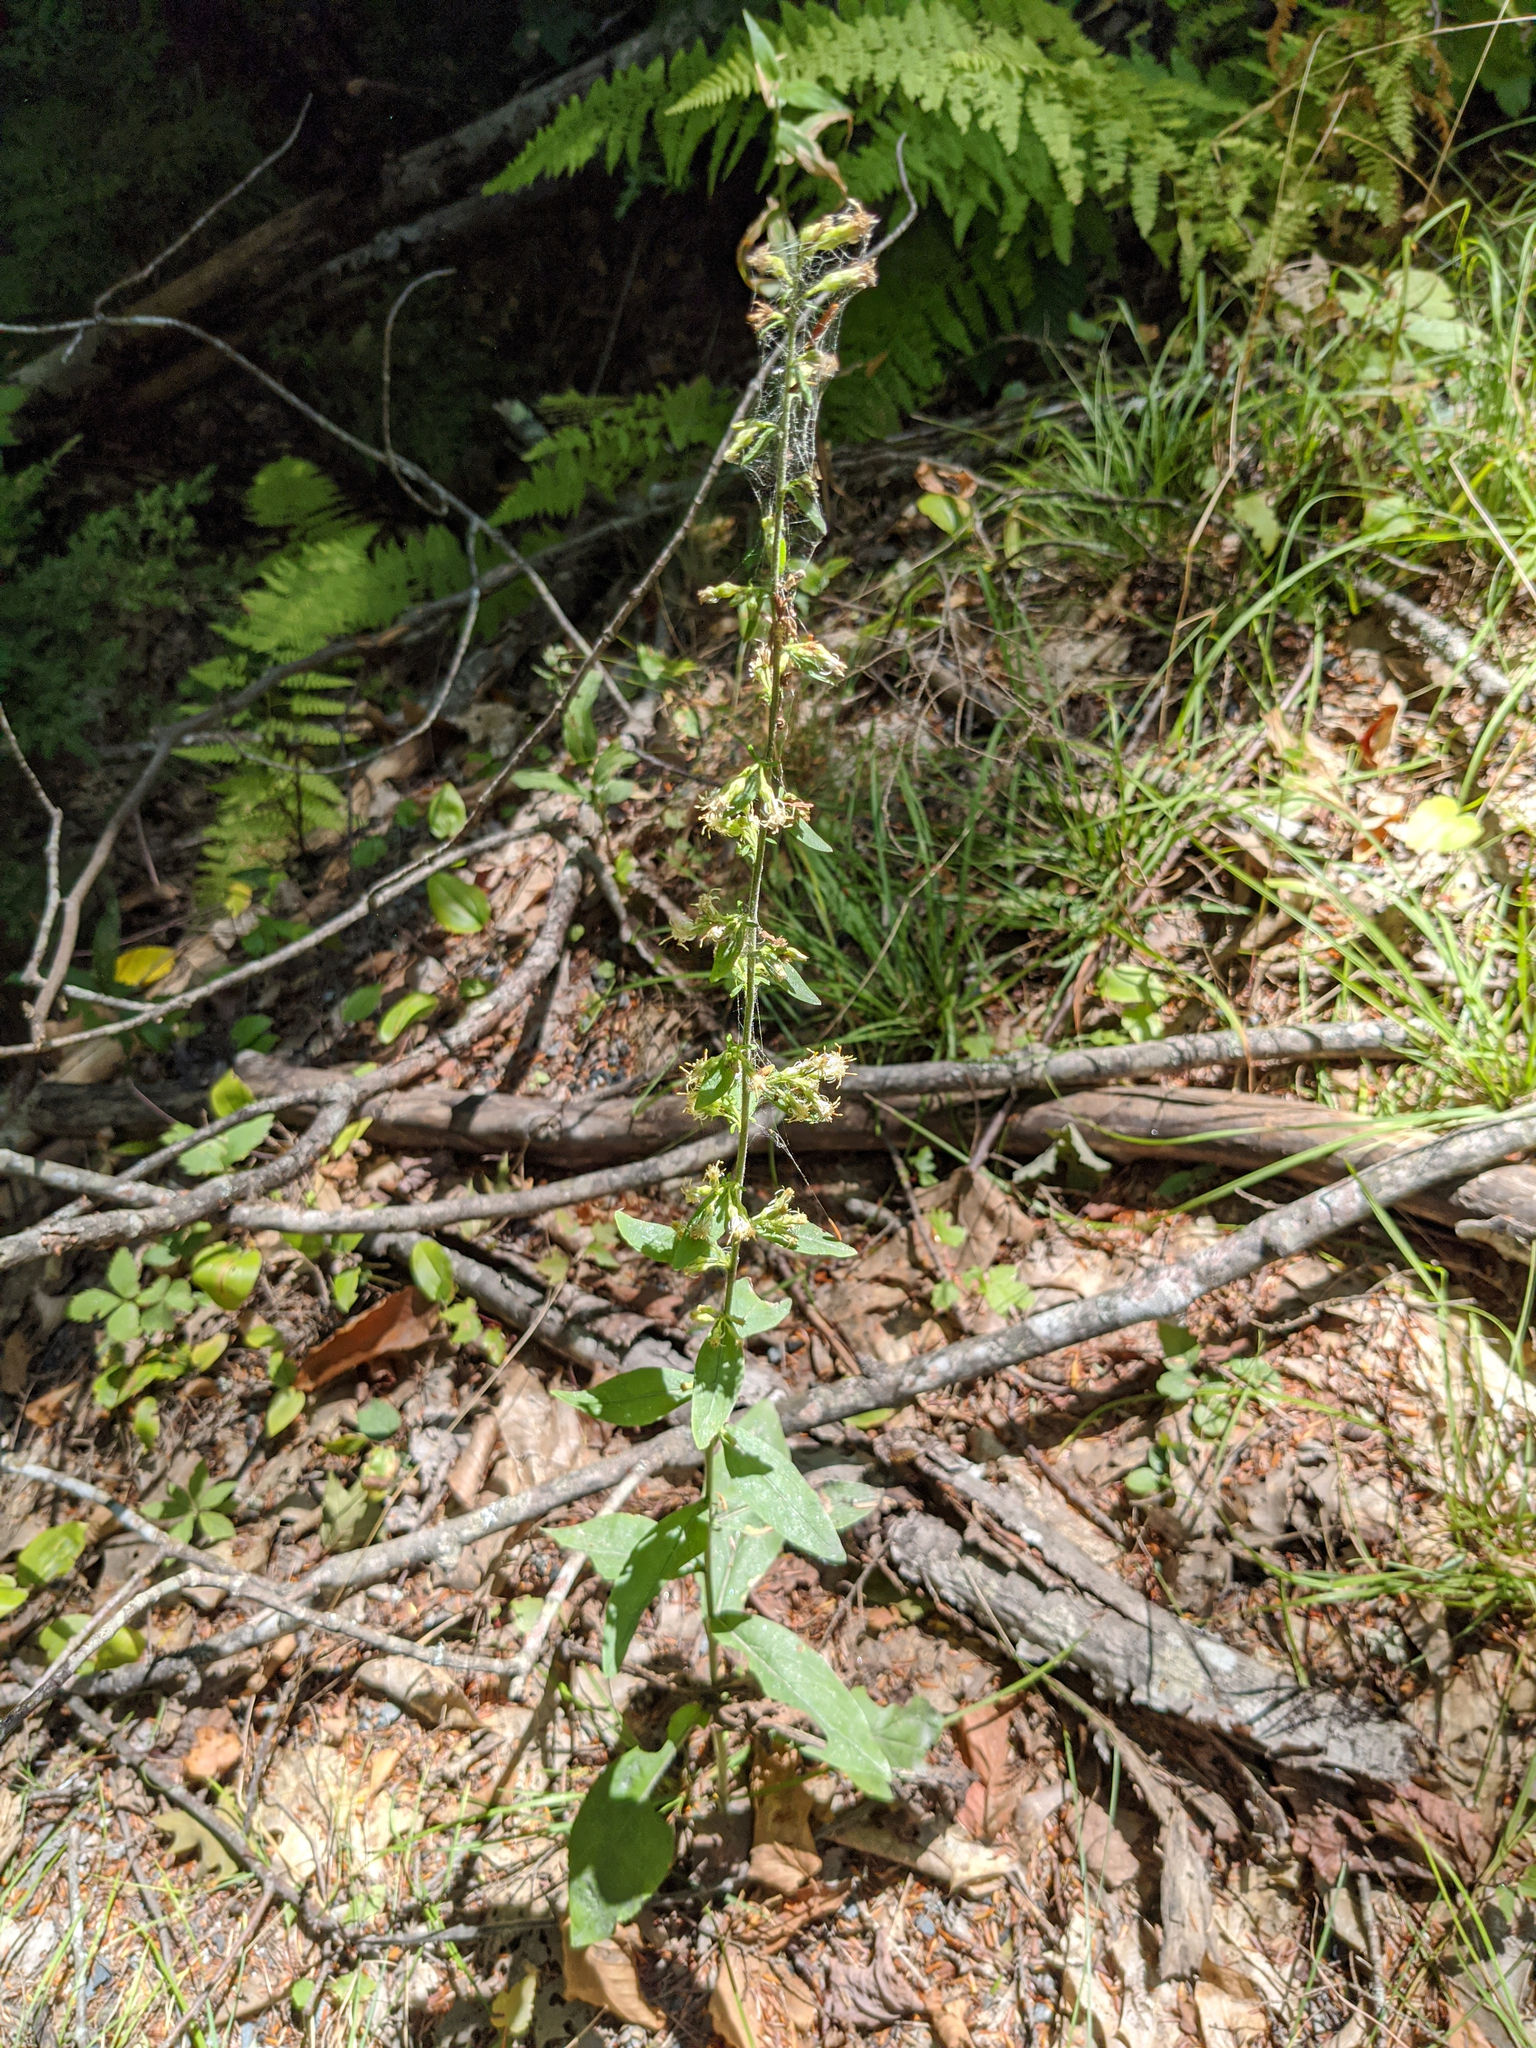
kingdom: Plantae
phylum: Tracheophyta
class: Magnoliopsida
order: Asterales
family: Asteraceae
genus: Solidago
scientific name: Solidago bicolor
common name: Silverrod
